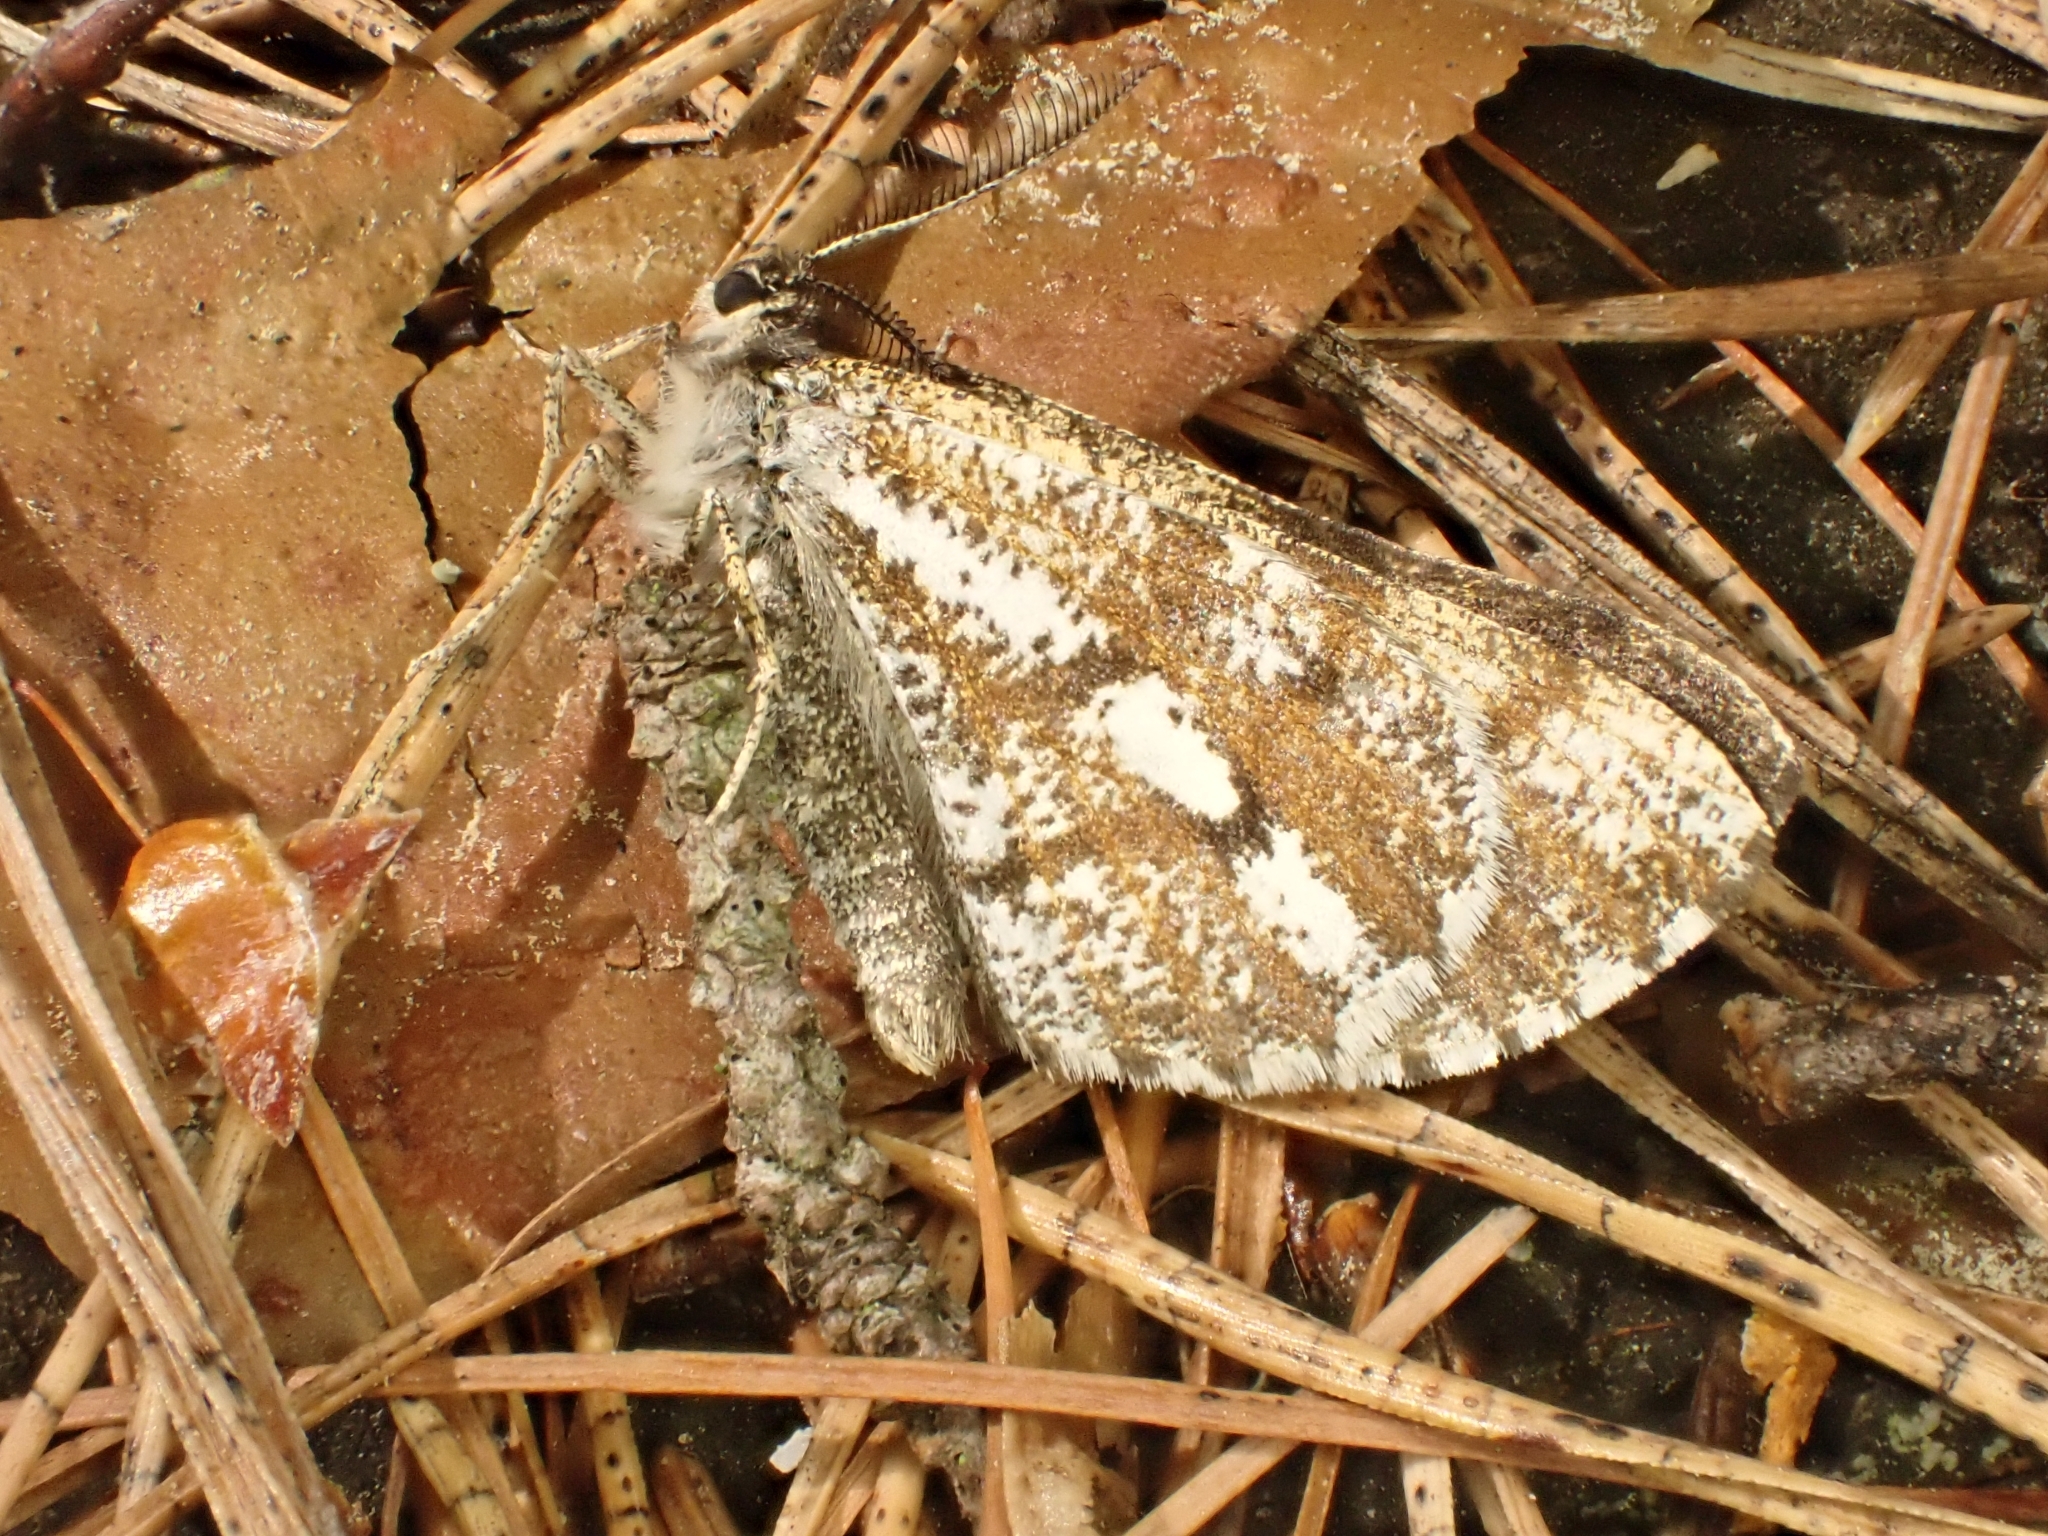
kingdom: Animalia
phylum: Arthropoda
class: Insecta
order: Lepidoptera
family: Geometridae
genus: Bupalus
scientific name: Bupalus piniaria
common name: Bordered white
